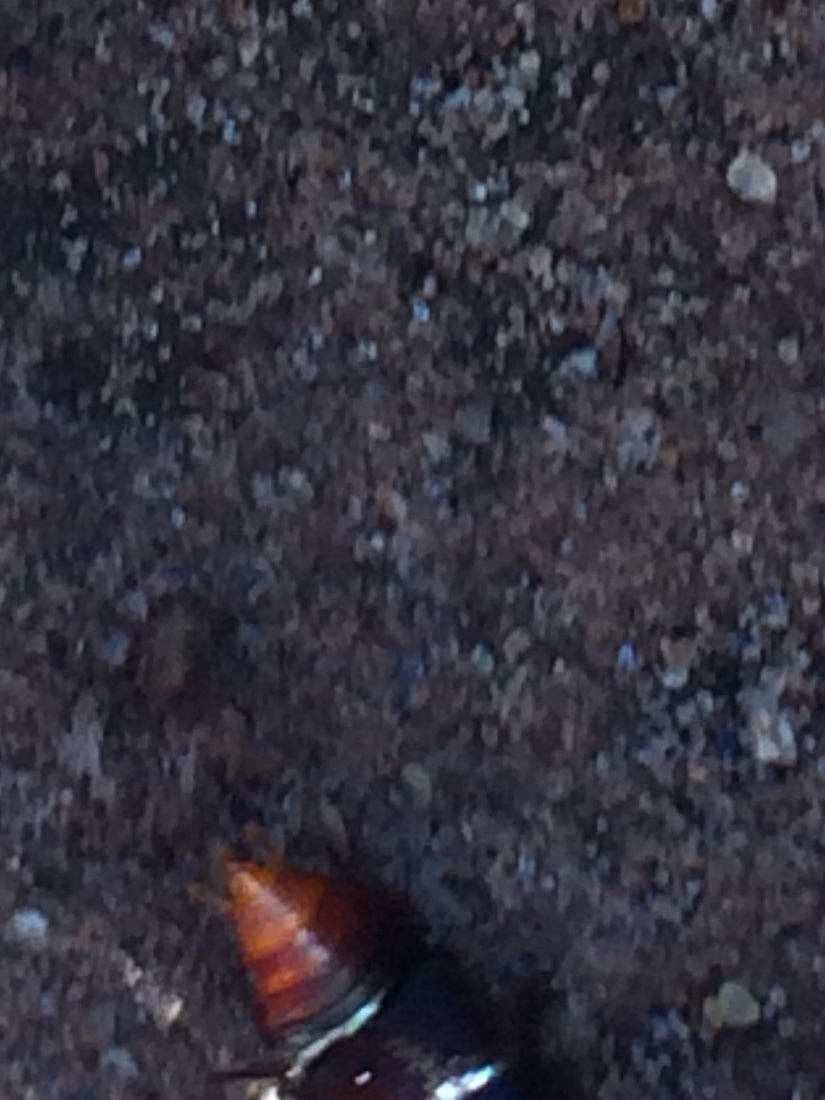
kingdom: Animalia
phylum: Arthropoda
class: Insecta
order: Coleoptera
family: Staphylinidae
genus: Smilax
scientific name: Smilax lynchi
